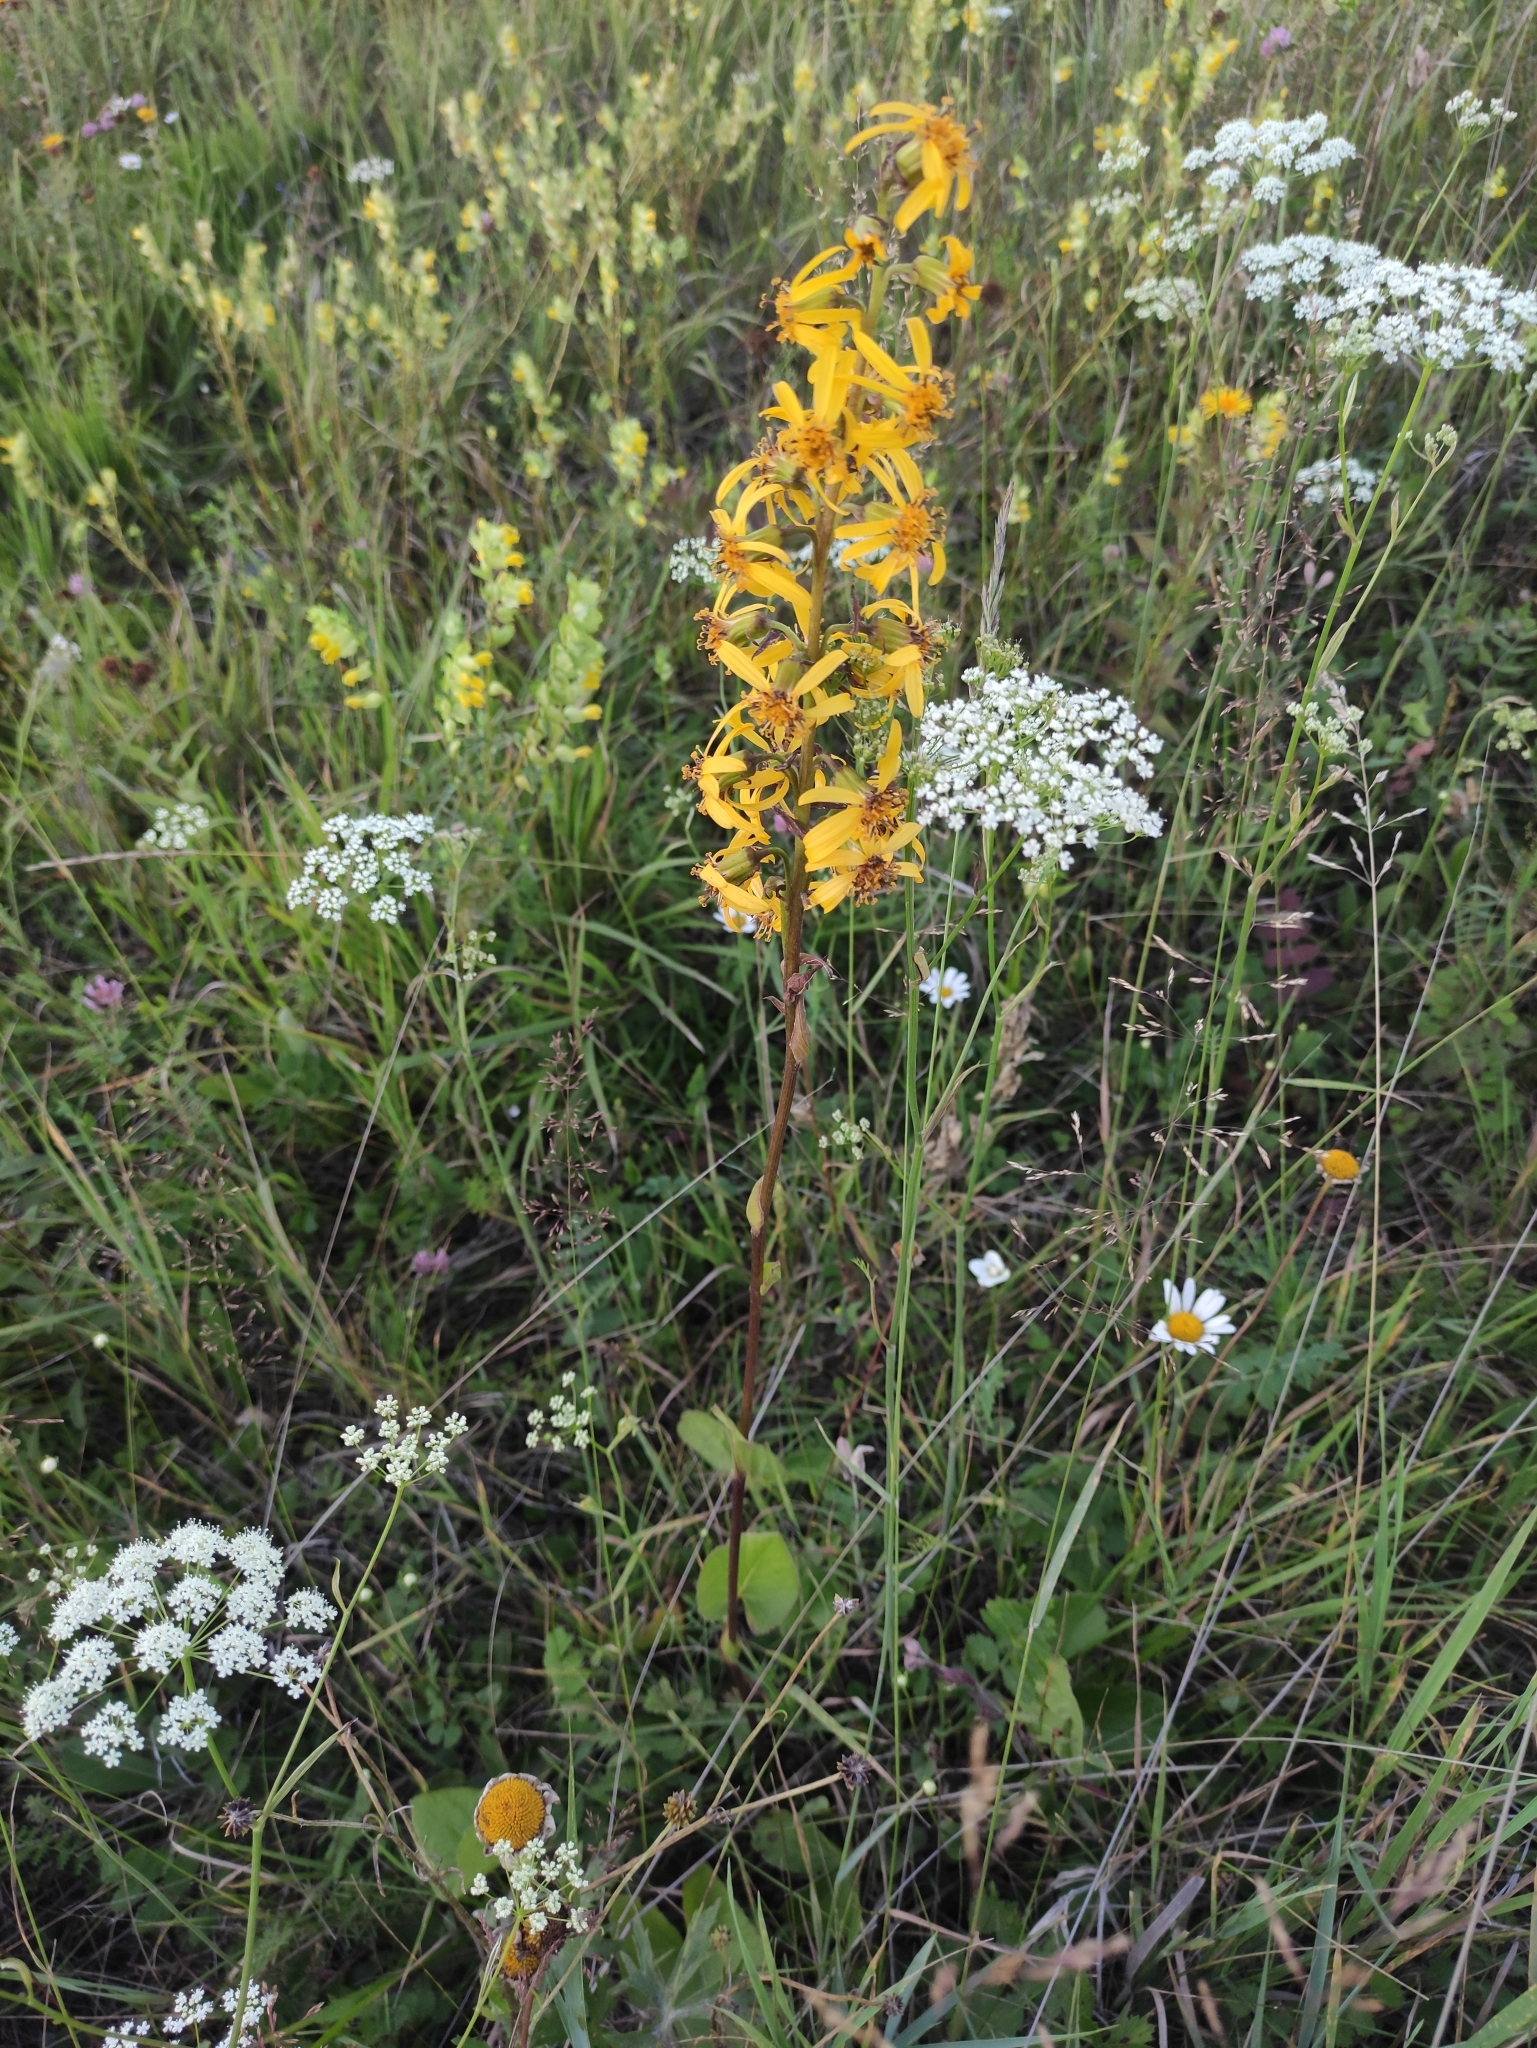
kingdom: Plantae
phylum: Tracheophyta
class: Magnoliopsida
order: Asterales
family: Asteraceae
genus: Ligularia
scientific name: Ligularia sibirica
